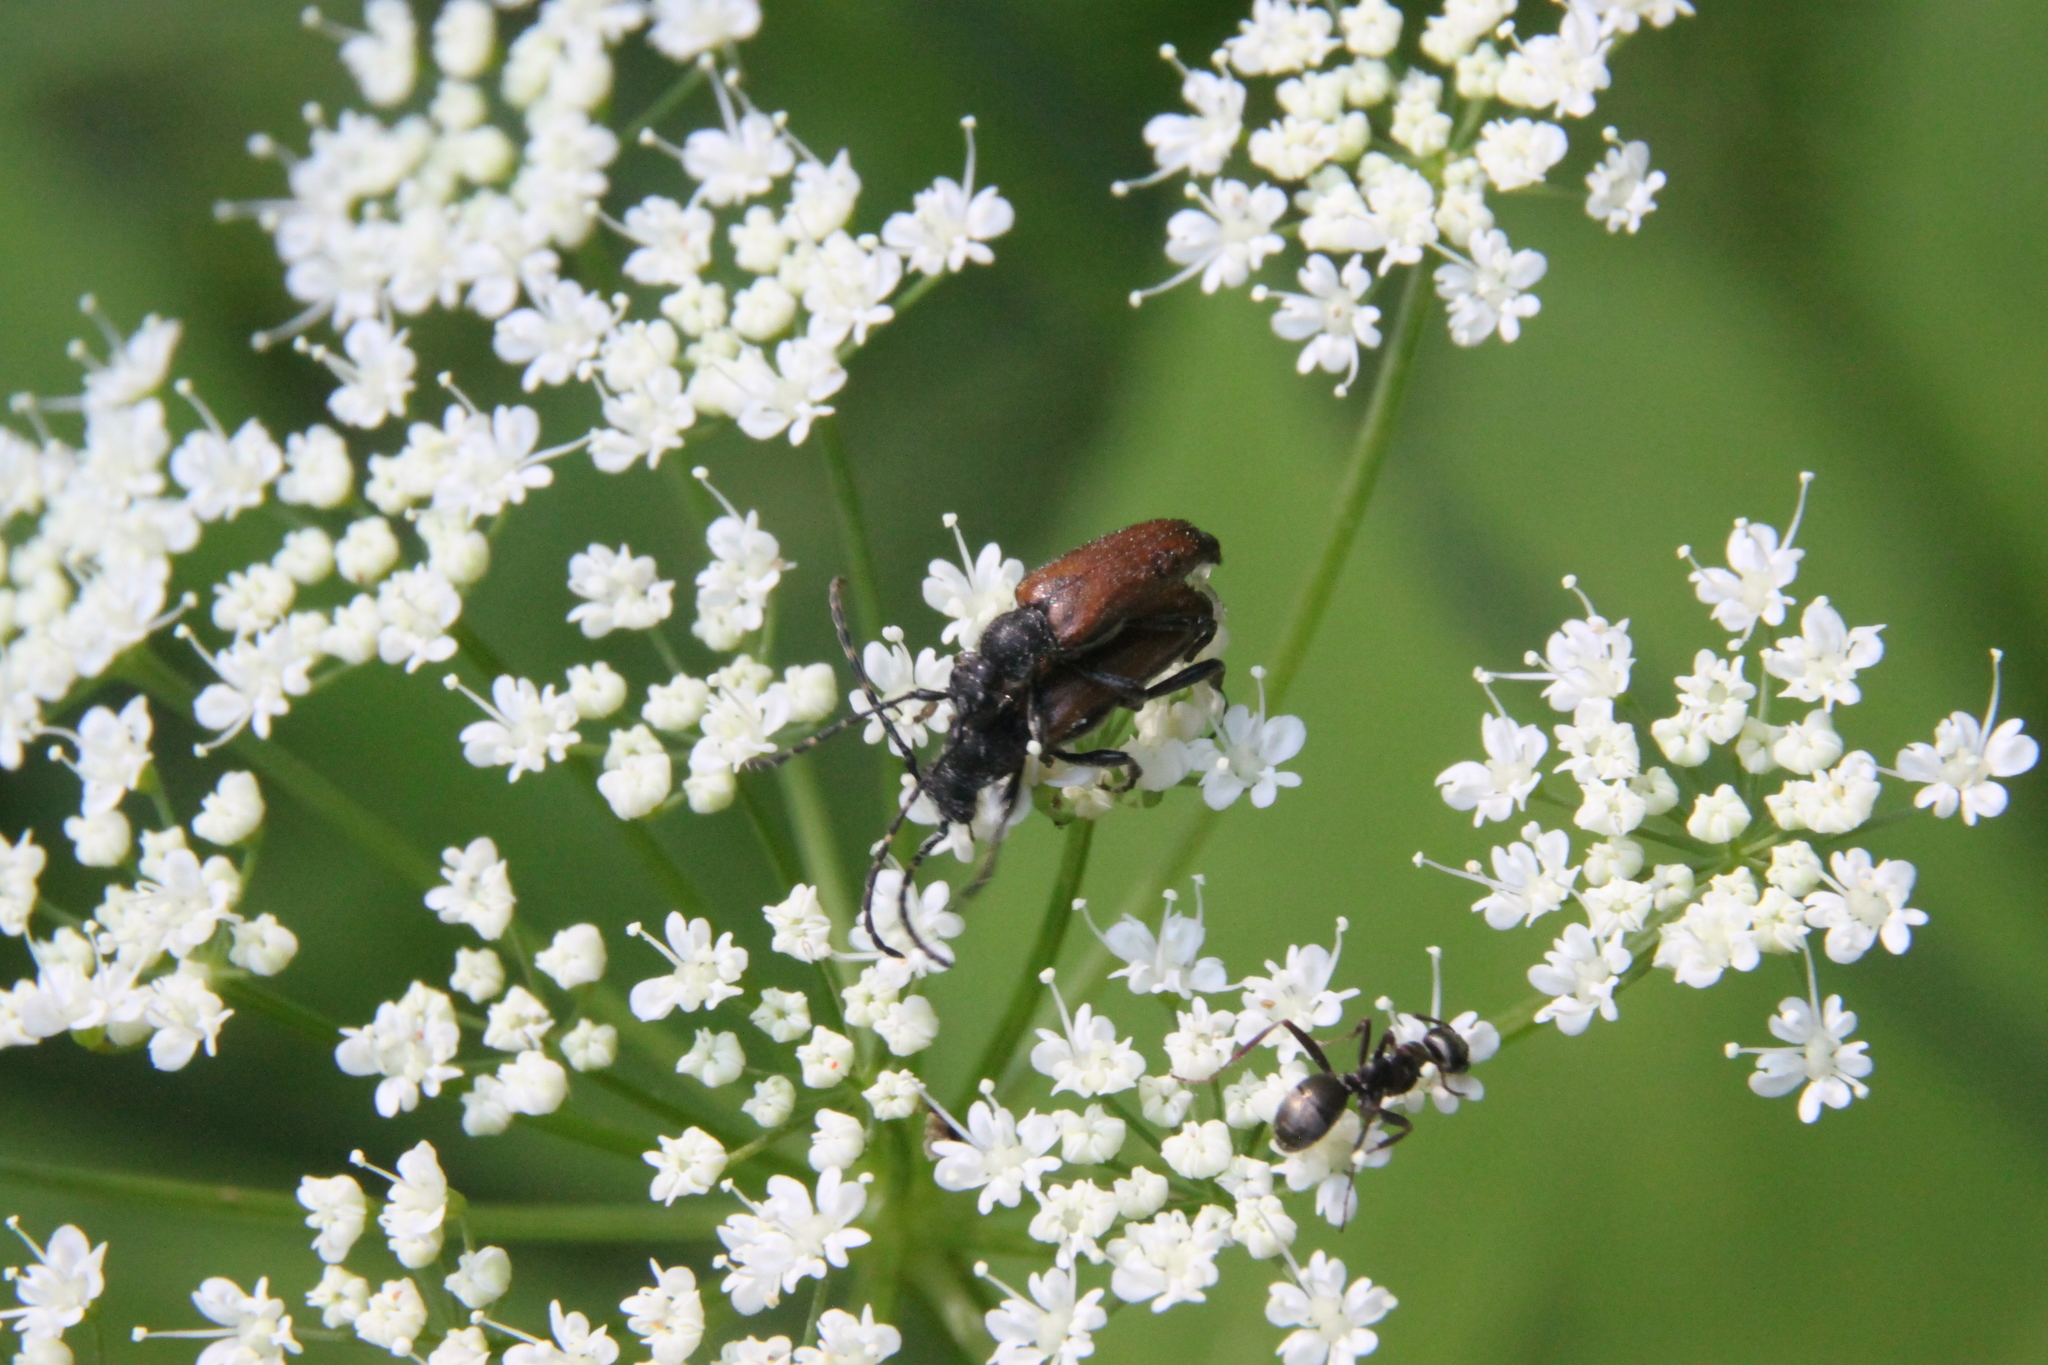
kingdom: Animalia
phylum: Arthropoda
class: Insecta
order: Coleoptera
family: Cerambycidae
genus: Paracorymbia
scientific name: Paracorymbia maculicornis
